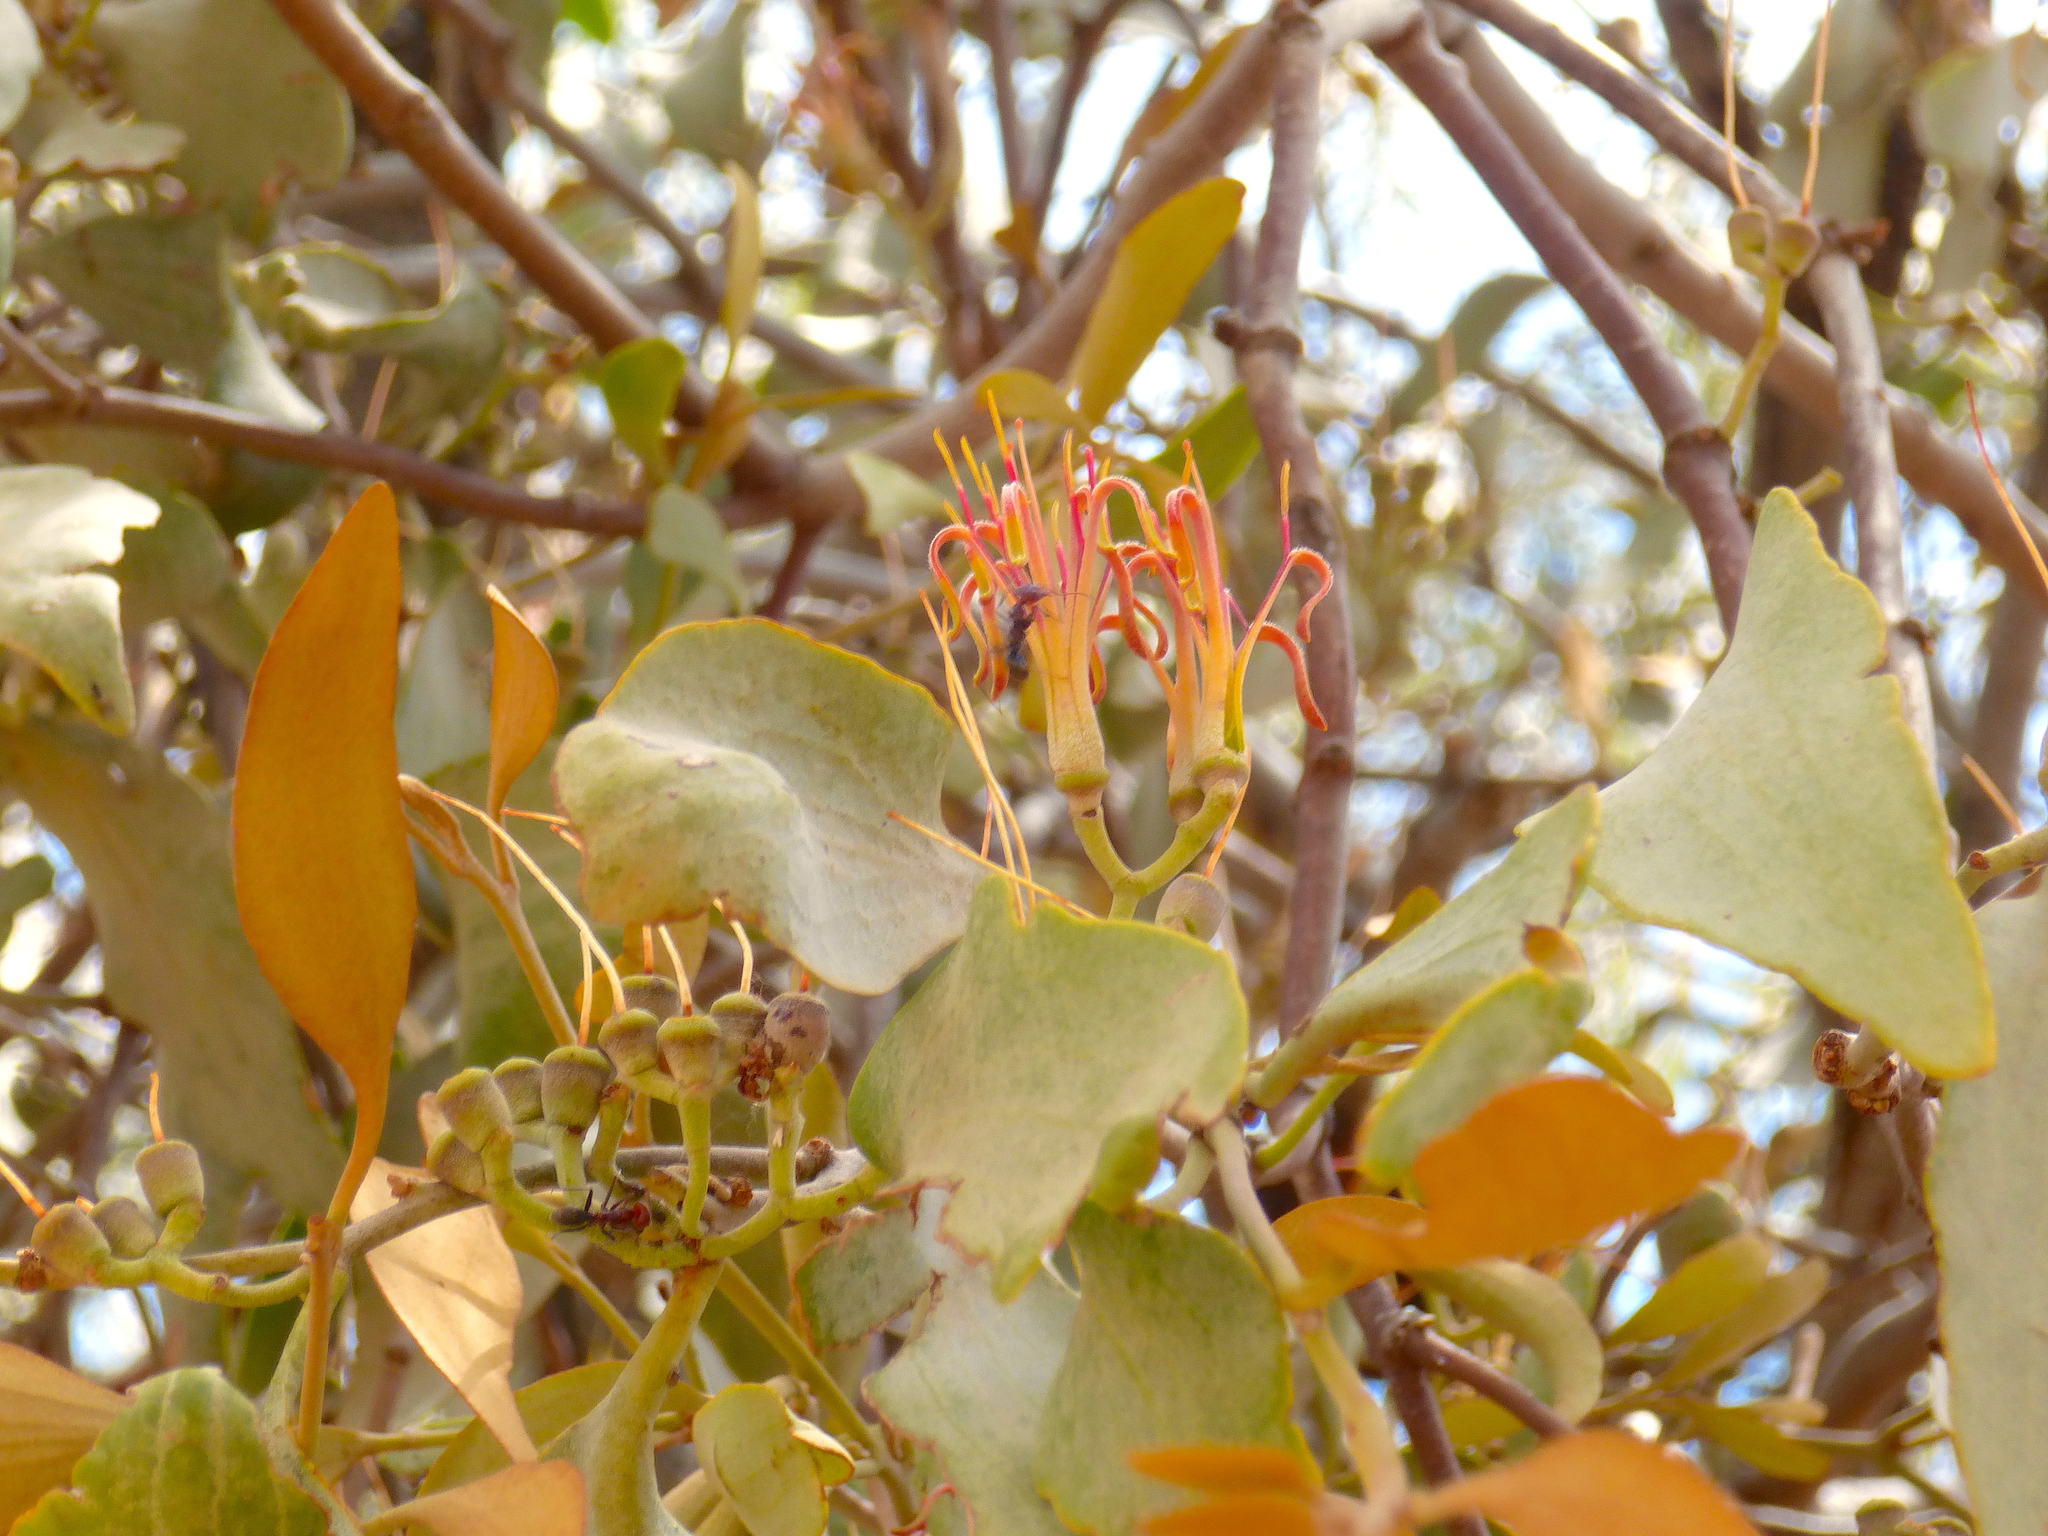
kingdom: Plantae
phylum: Tracheophyta
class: Magnoliopsida
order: Santalales
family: Loranthaceae
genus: Amyema
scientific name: Amyema quandang
